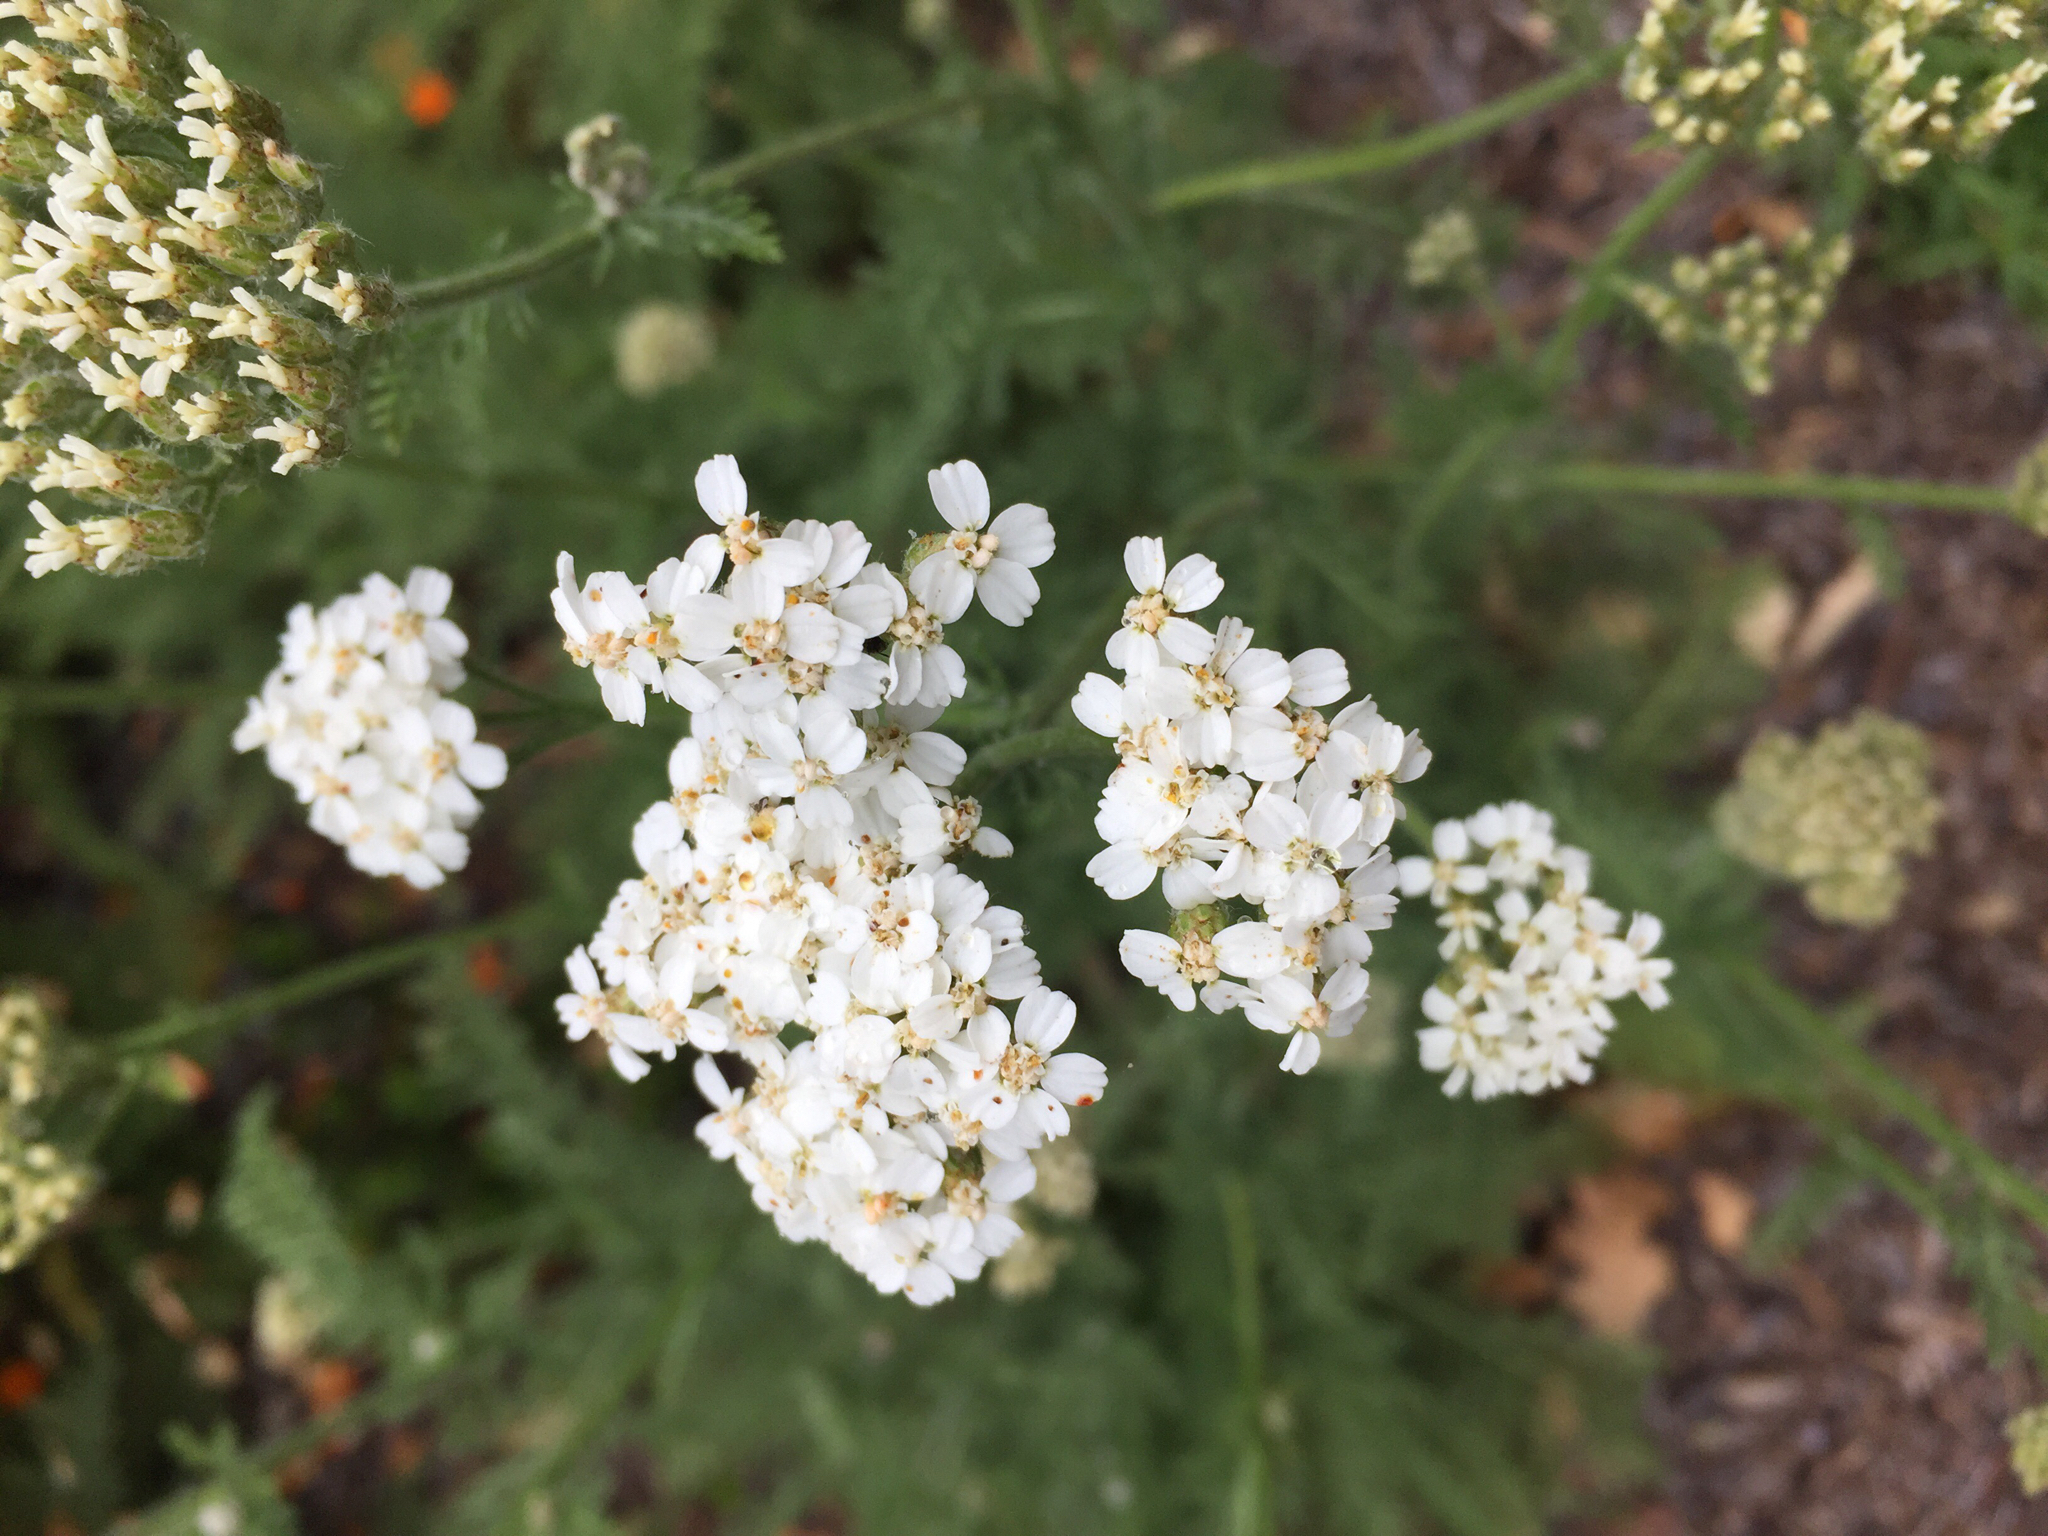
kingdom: Plantae
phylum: Tracheophyta
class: Magnoliopsida
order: Asterales
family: Asteraceae
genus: Achillea
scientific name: Achillea millefolium
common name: Yarrow
